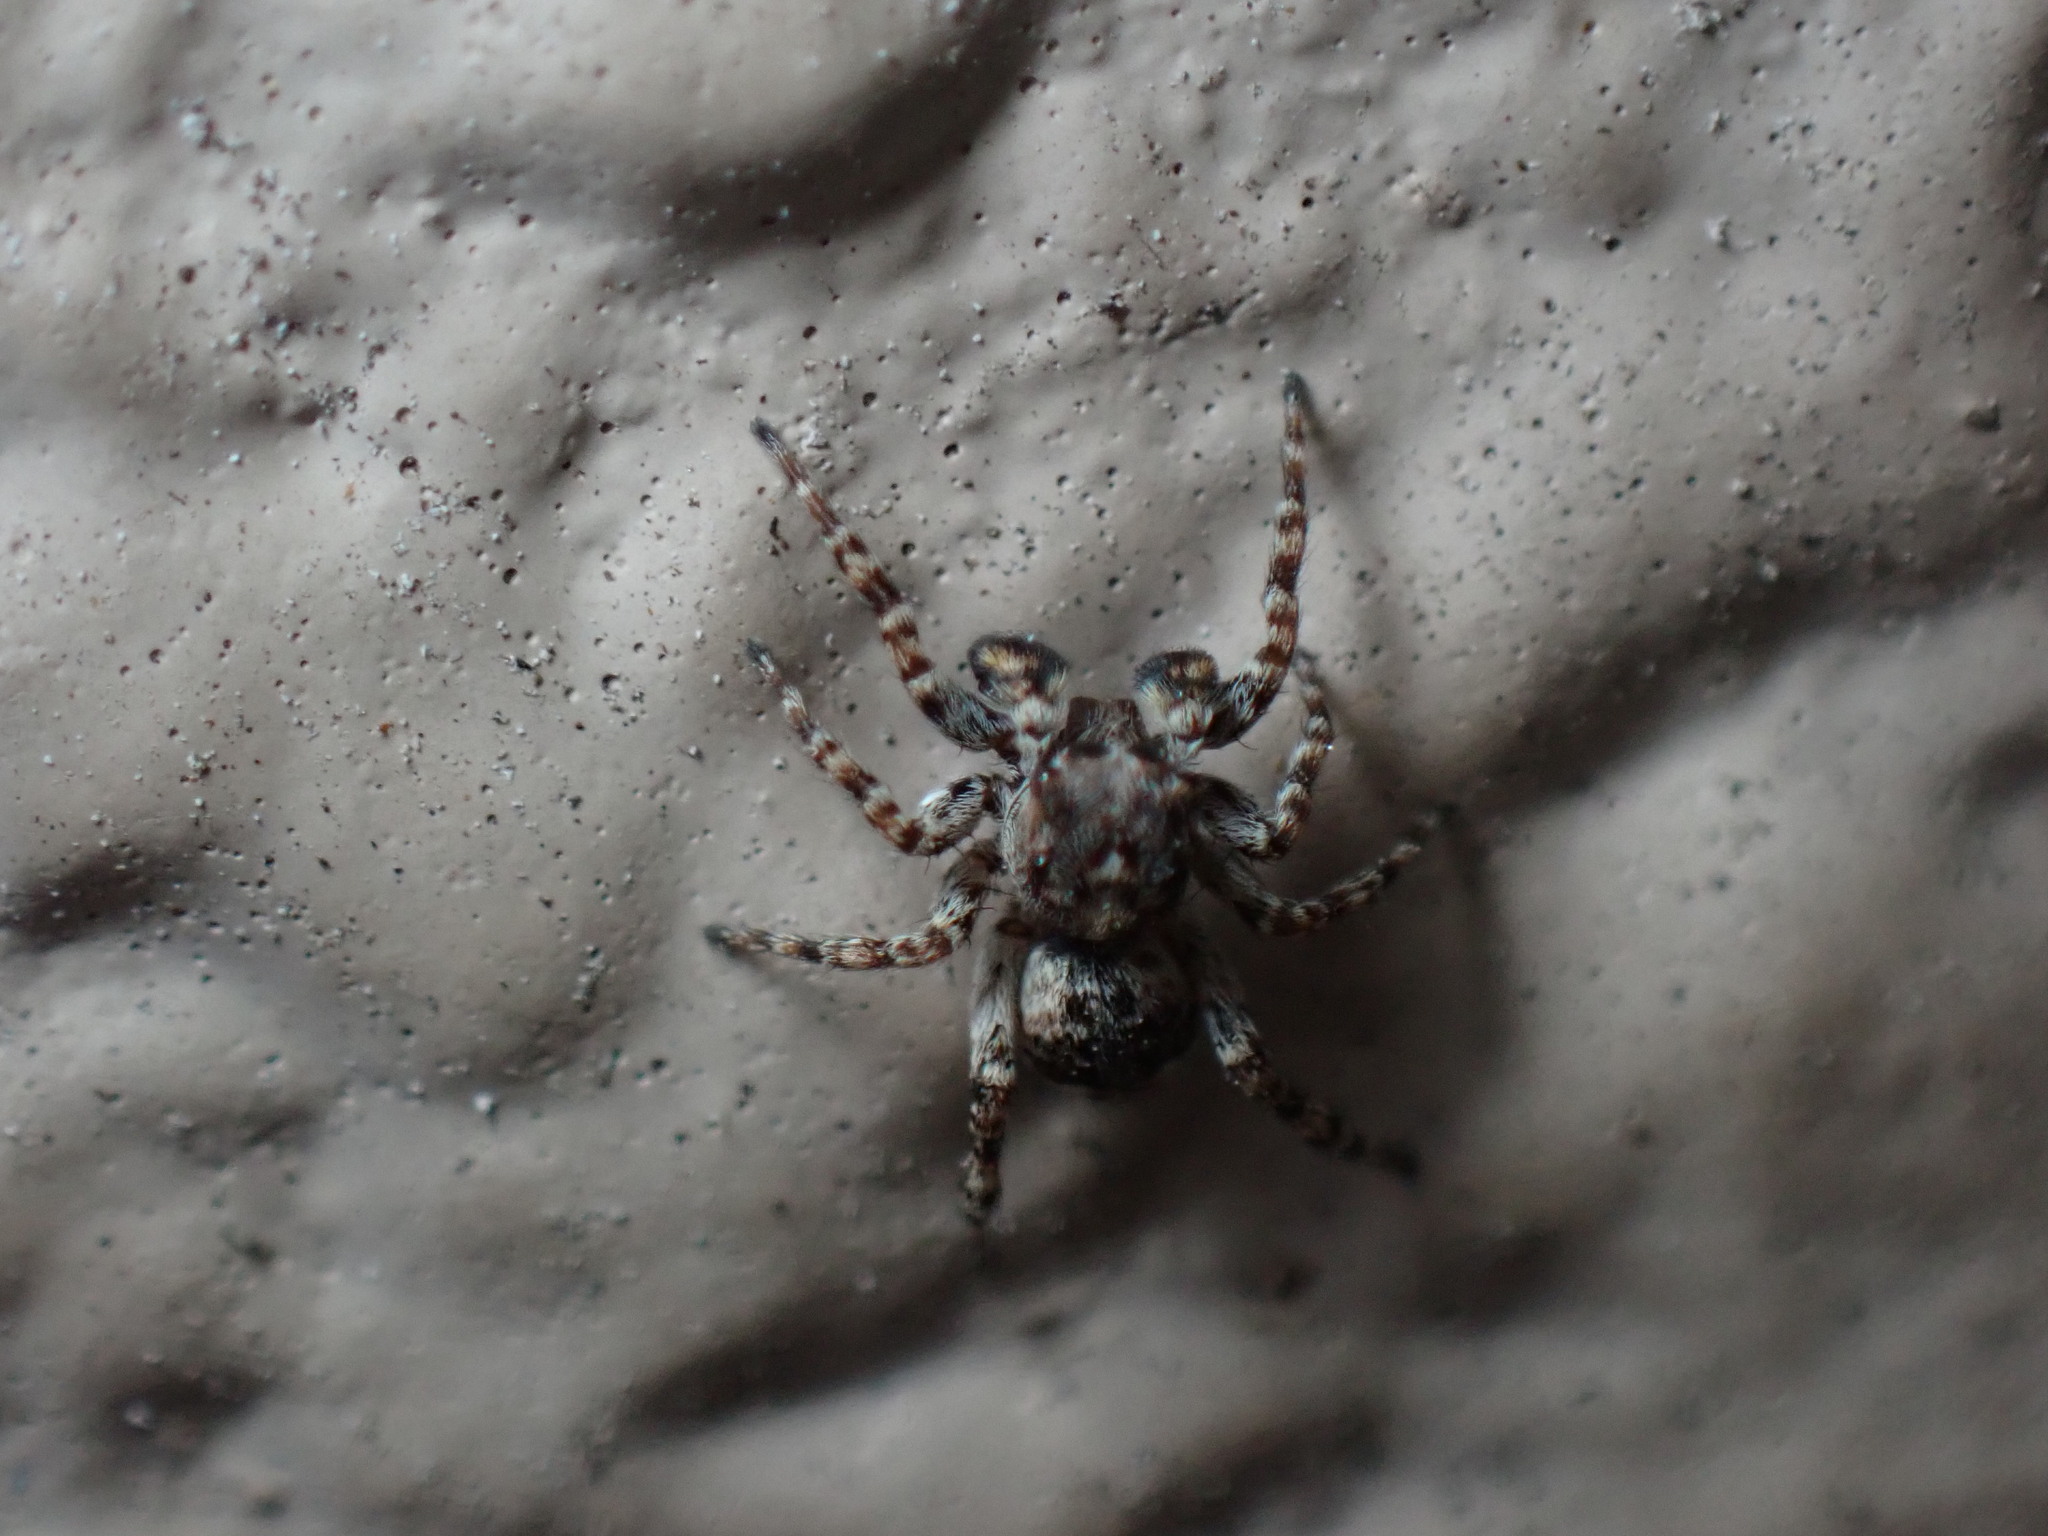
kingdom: Animalia
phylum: Arthropoda
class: Arachnida
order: Araneae
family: Salticidae
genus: Attulus
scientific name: Attulus fasciger
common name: Asiatic wall jumping spider
